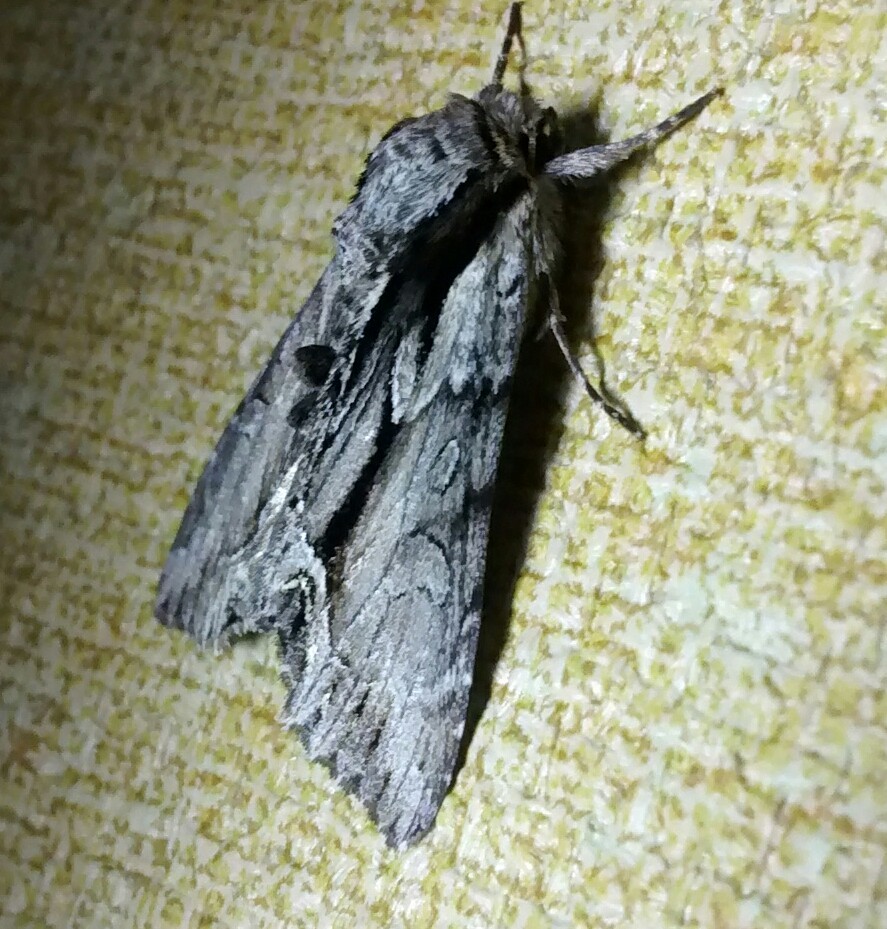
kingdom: Animalia
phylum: Arthropoda
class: Insecta
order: Lepidoptera
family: Noctuidae
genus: Hyppa
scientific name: Hyppa xylinoides
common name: Common hyppa moth
